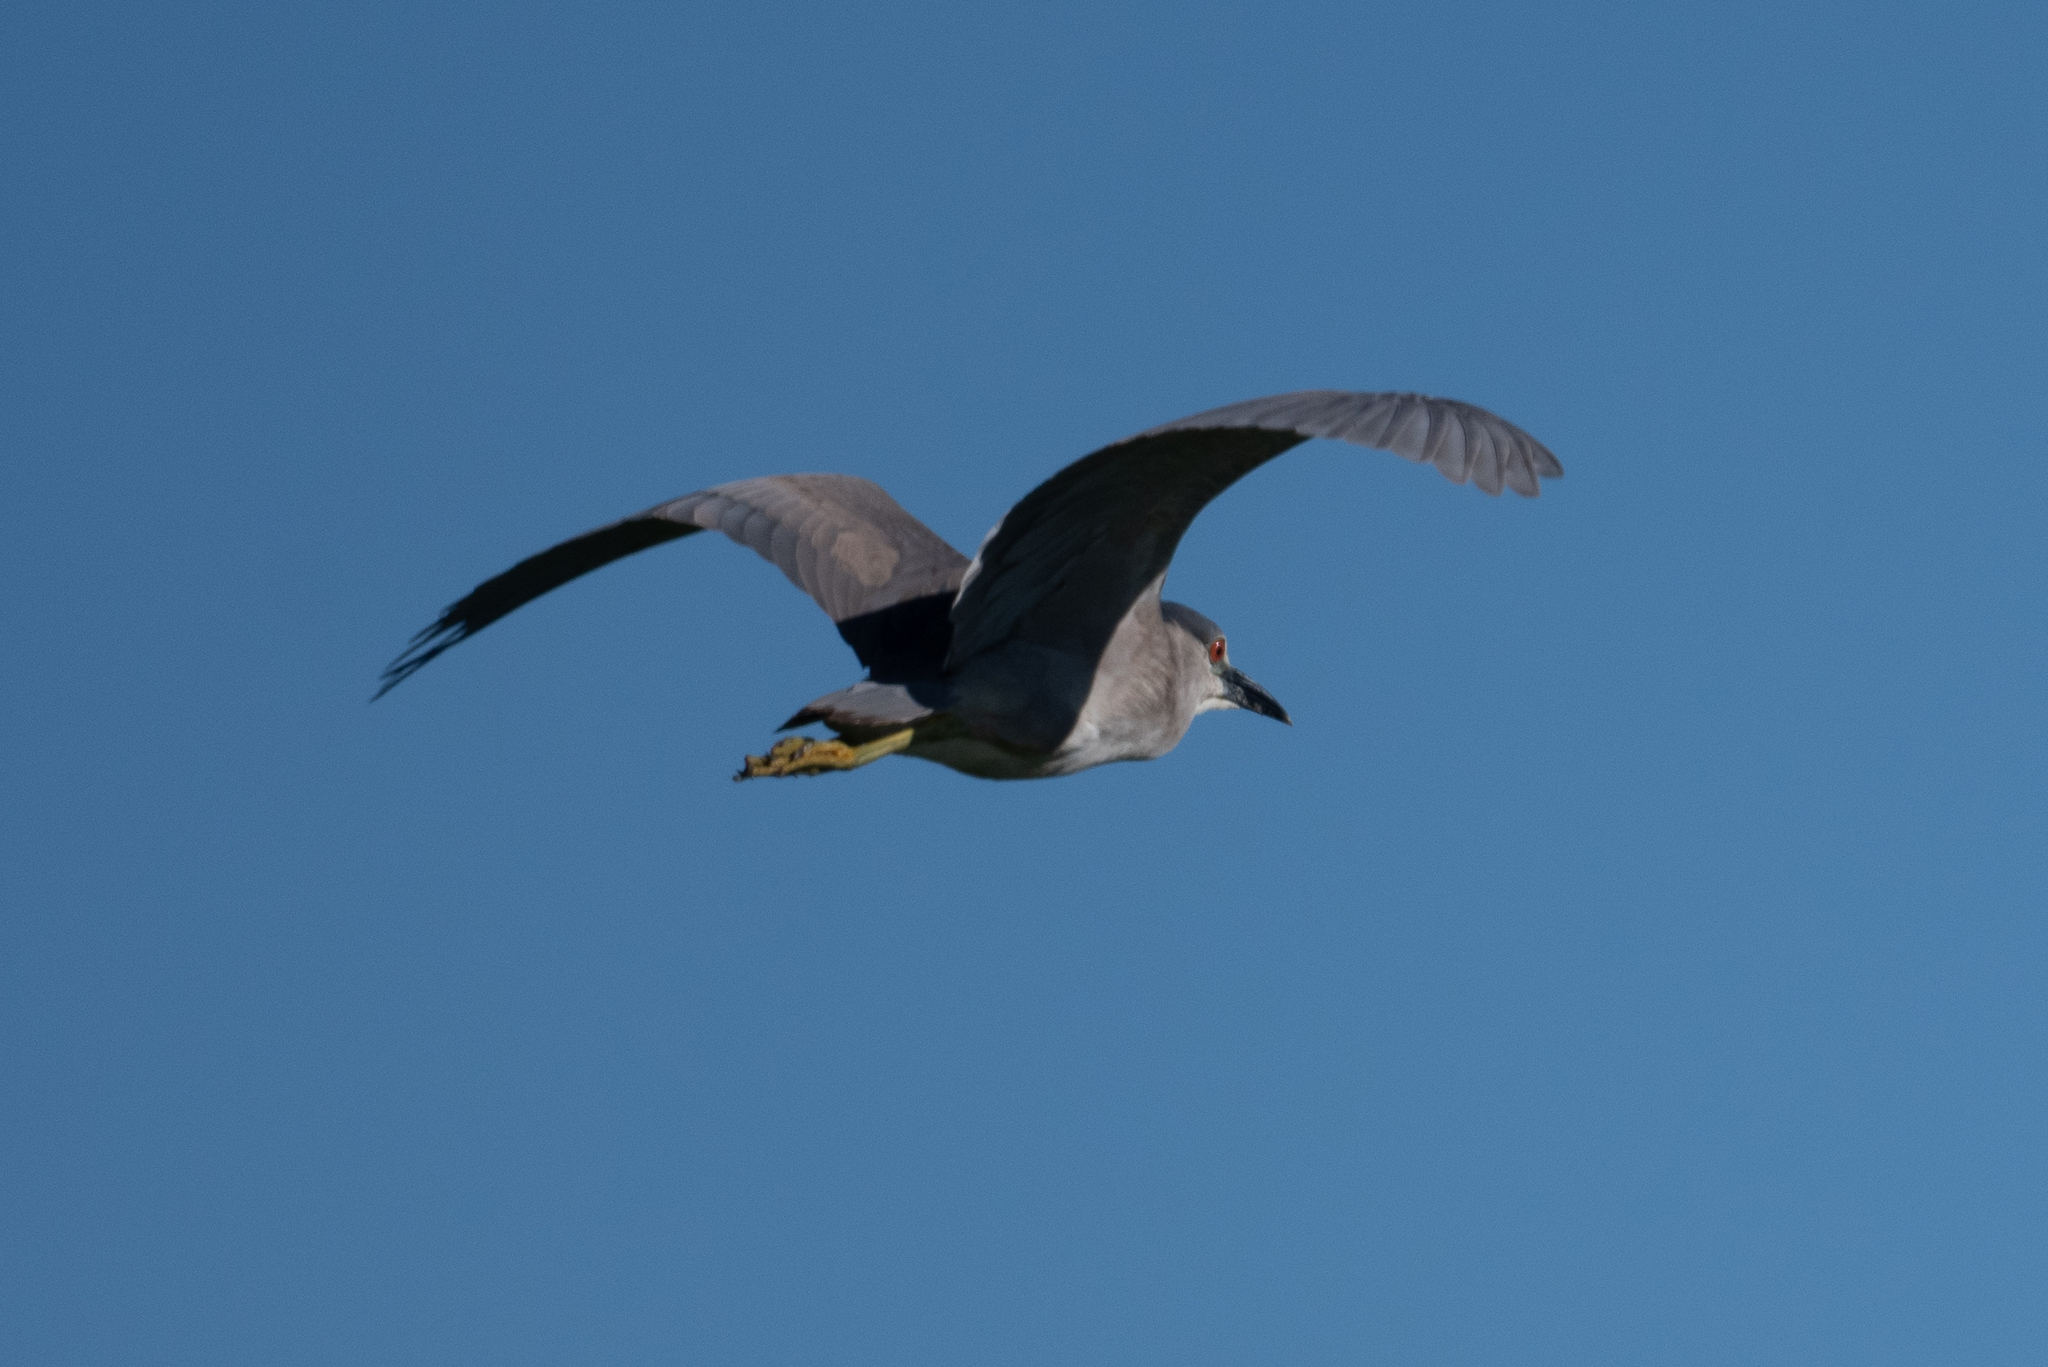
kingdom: Animalia
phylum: Chordata
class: Aves
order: Pelecaniformes
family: Ardeidae
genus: Nycticorax
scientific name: Nycticorax nycticorax
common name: Black-crowned night heron
